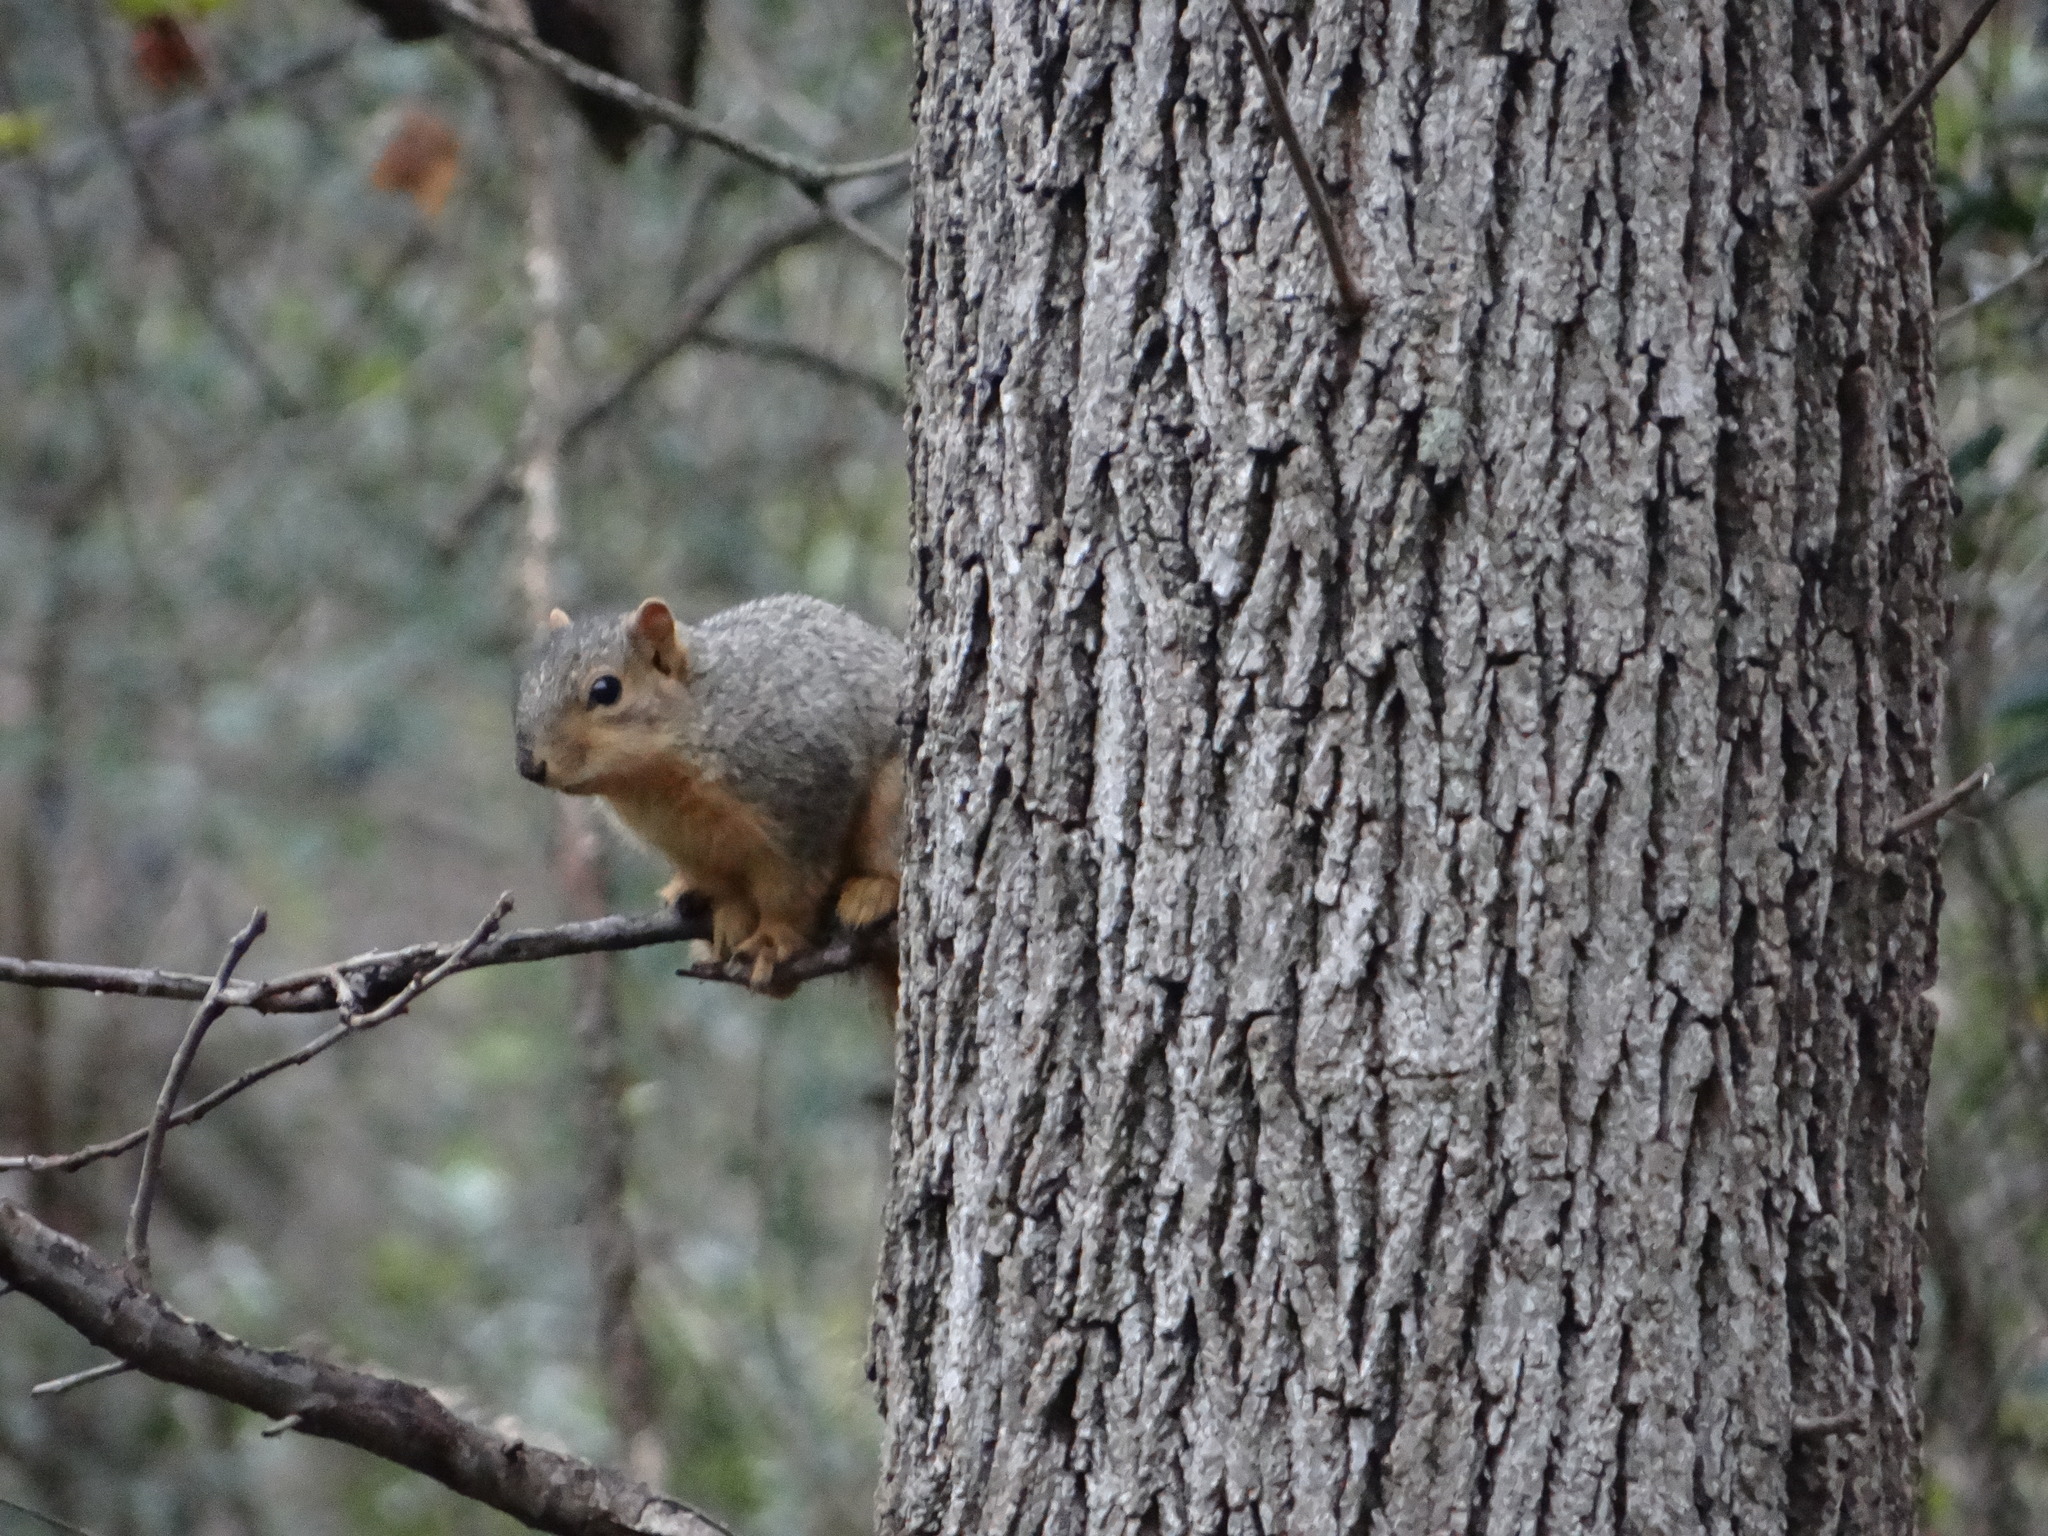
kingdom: Animalia
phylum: Chordata
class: Mammalia
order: Rodentia
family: Sciuridae
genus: Sciurus
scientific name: Sciurus niger
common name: Fox squirrel
